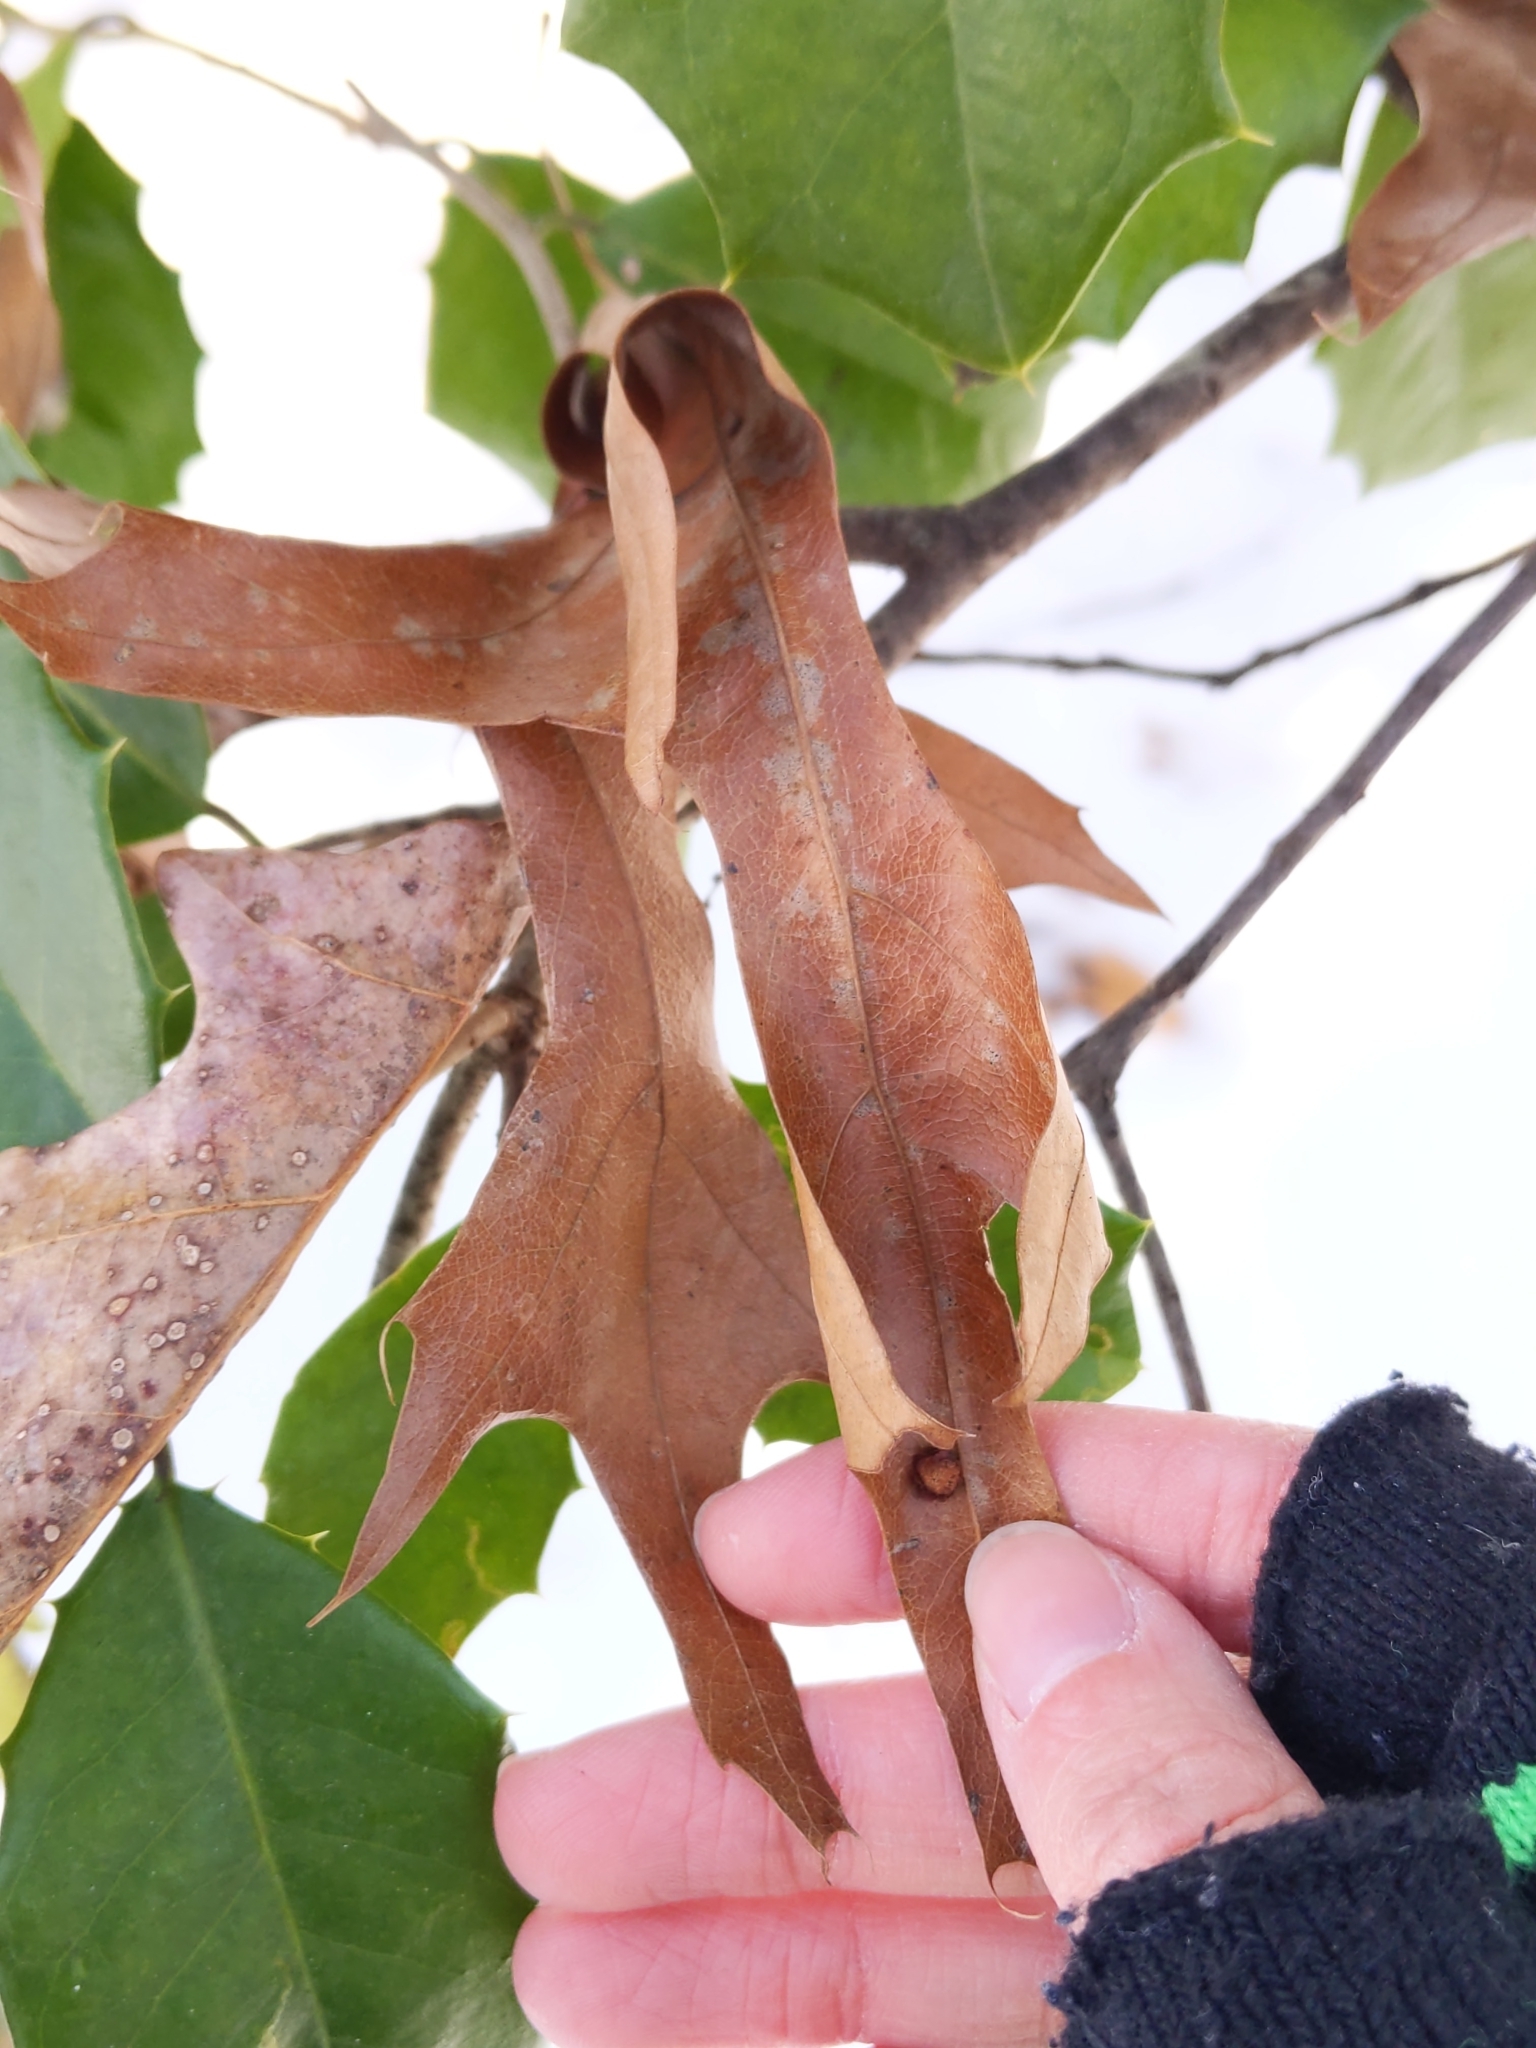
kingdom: Animalia
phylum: Arthropoda
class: Insecta
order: Diptera
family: Cecidomyiidae
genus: Polystepha
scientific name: Polystepha pilulae
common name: Oak leaf gall midge
